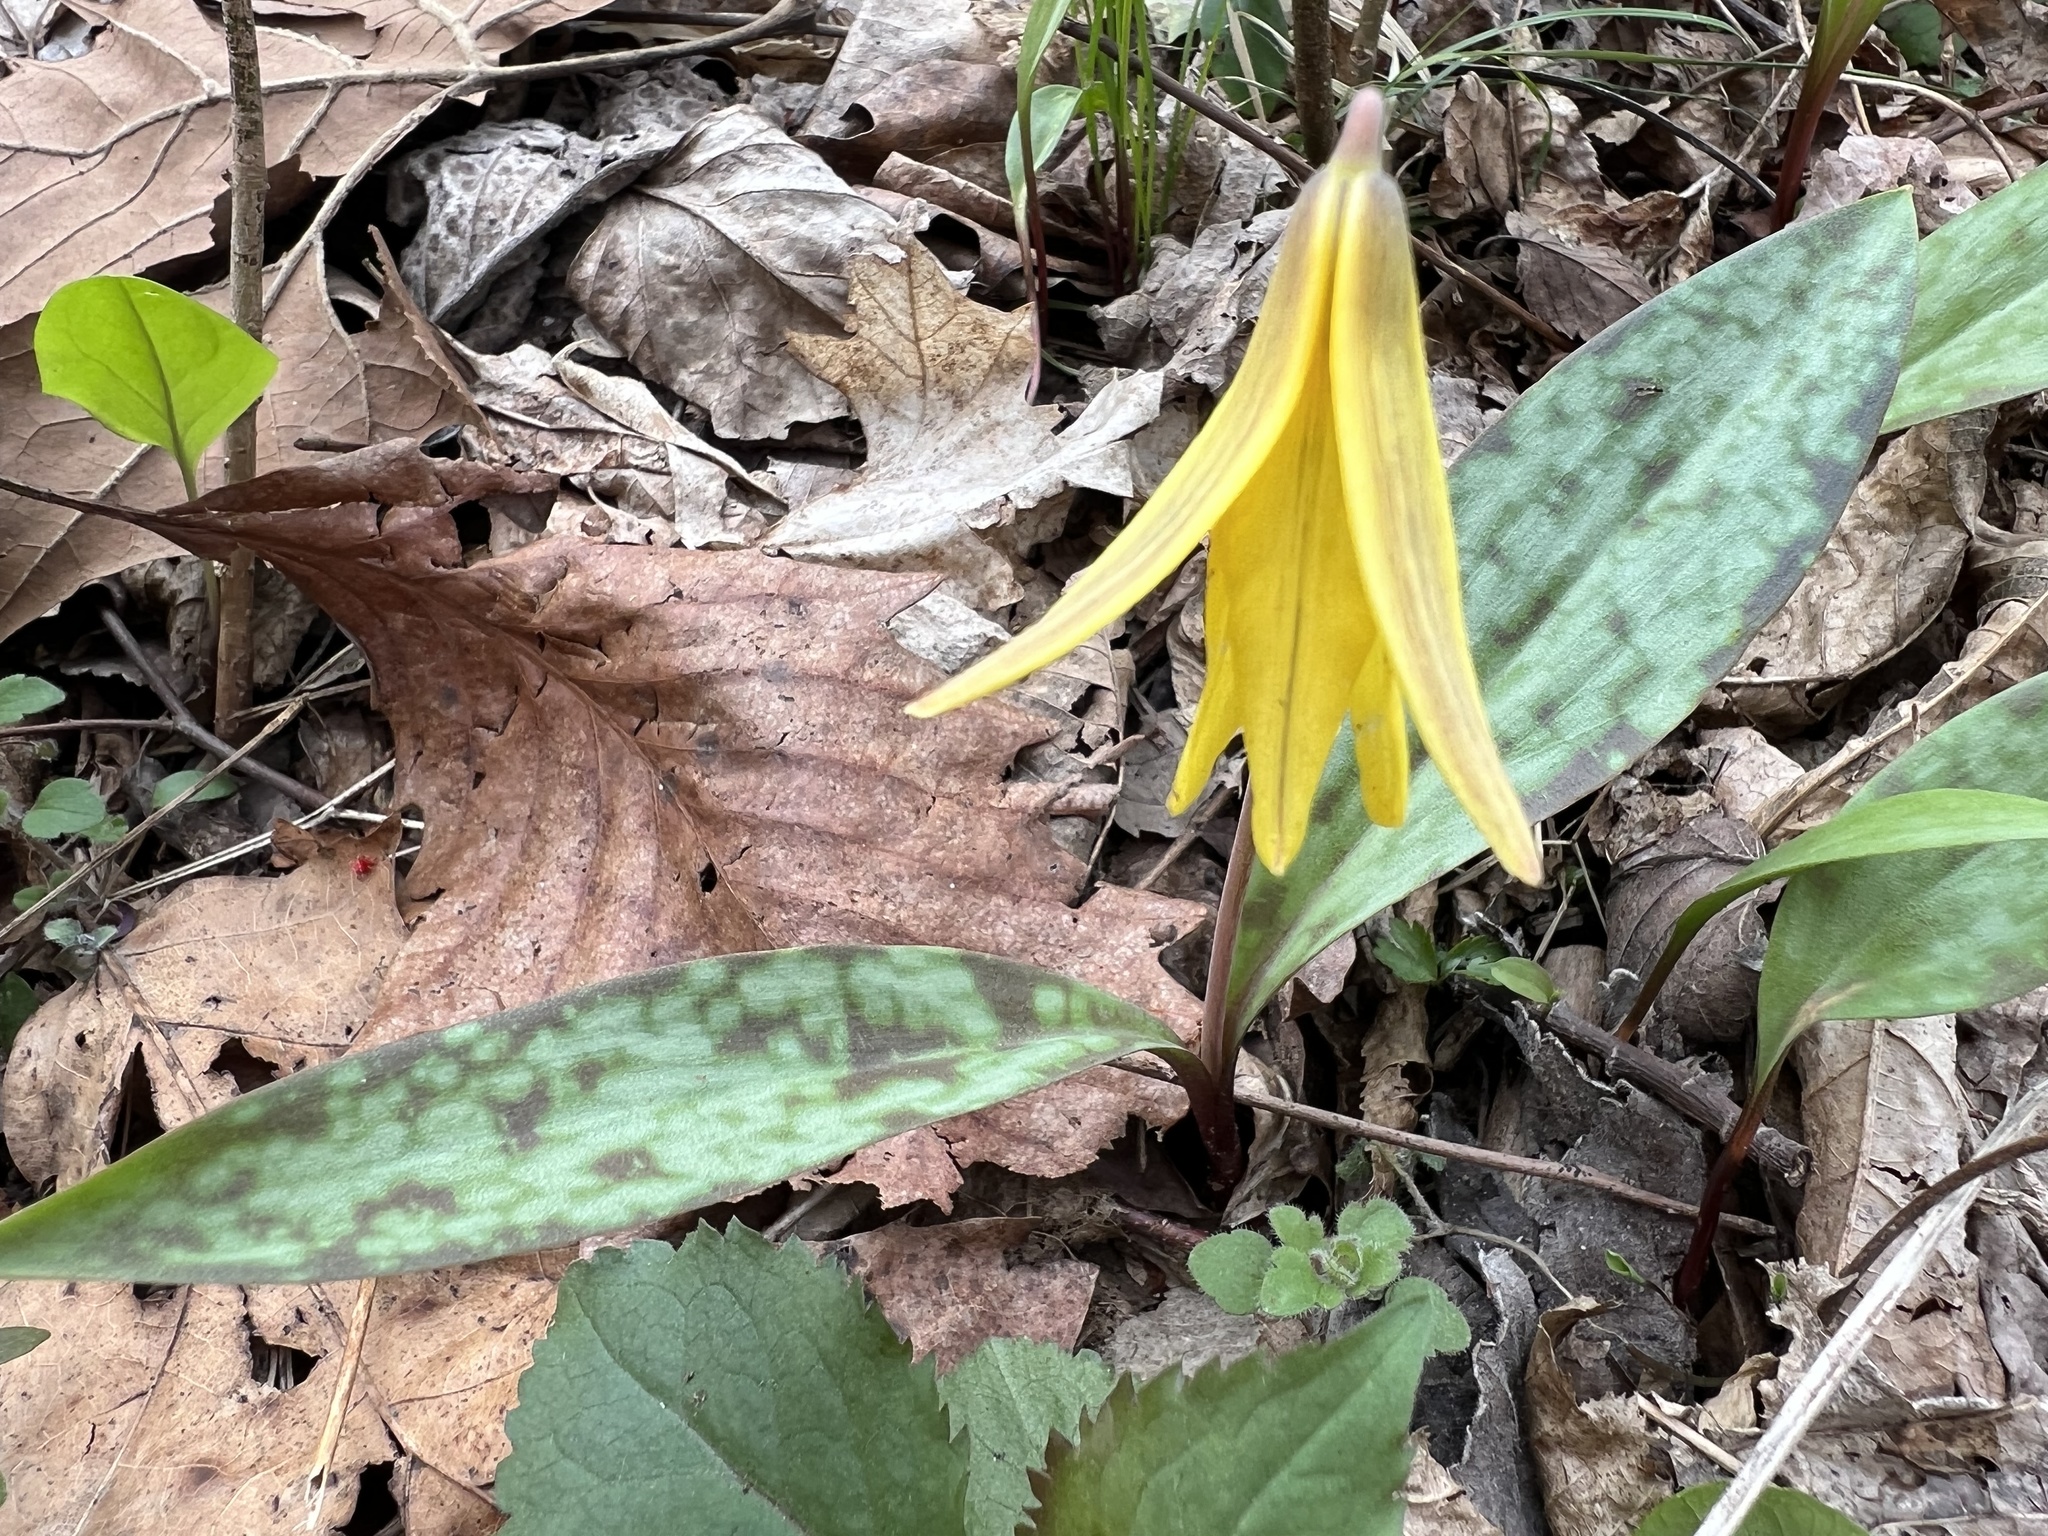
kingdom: Plantae
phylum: Tracheophyta
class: Liliopsida
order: Liliales
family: Liliaceae
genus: Erythronium
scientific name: Erythronium americanum
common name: Yellow adder's-tongue
